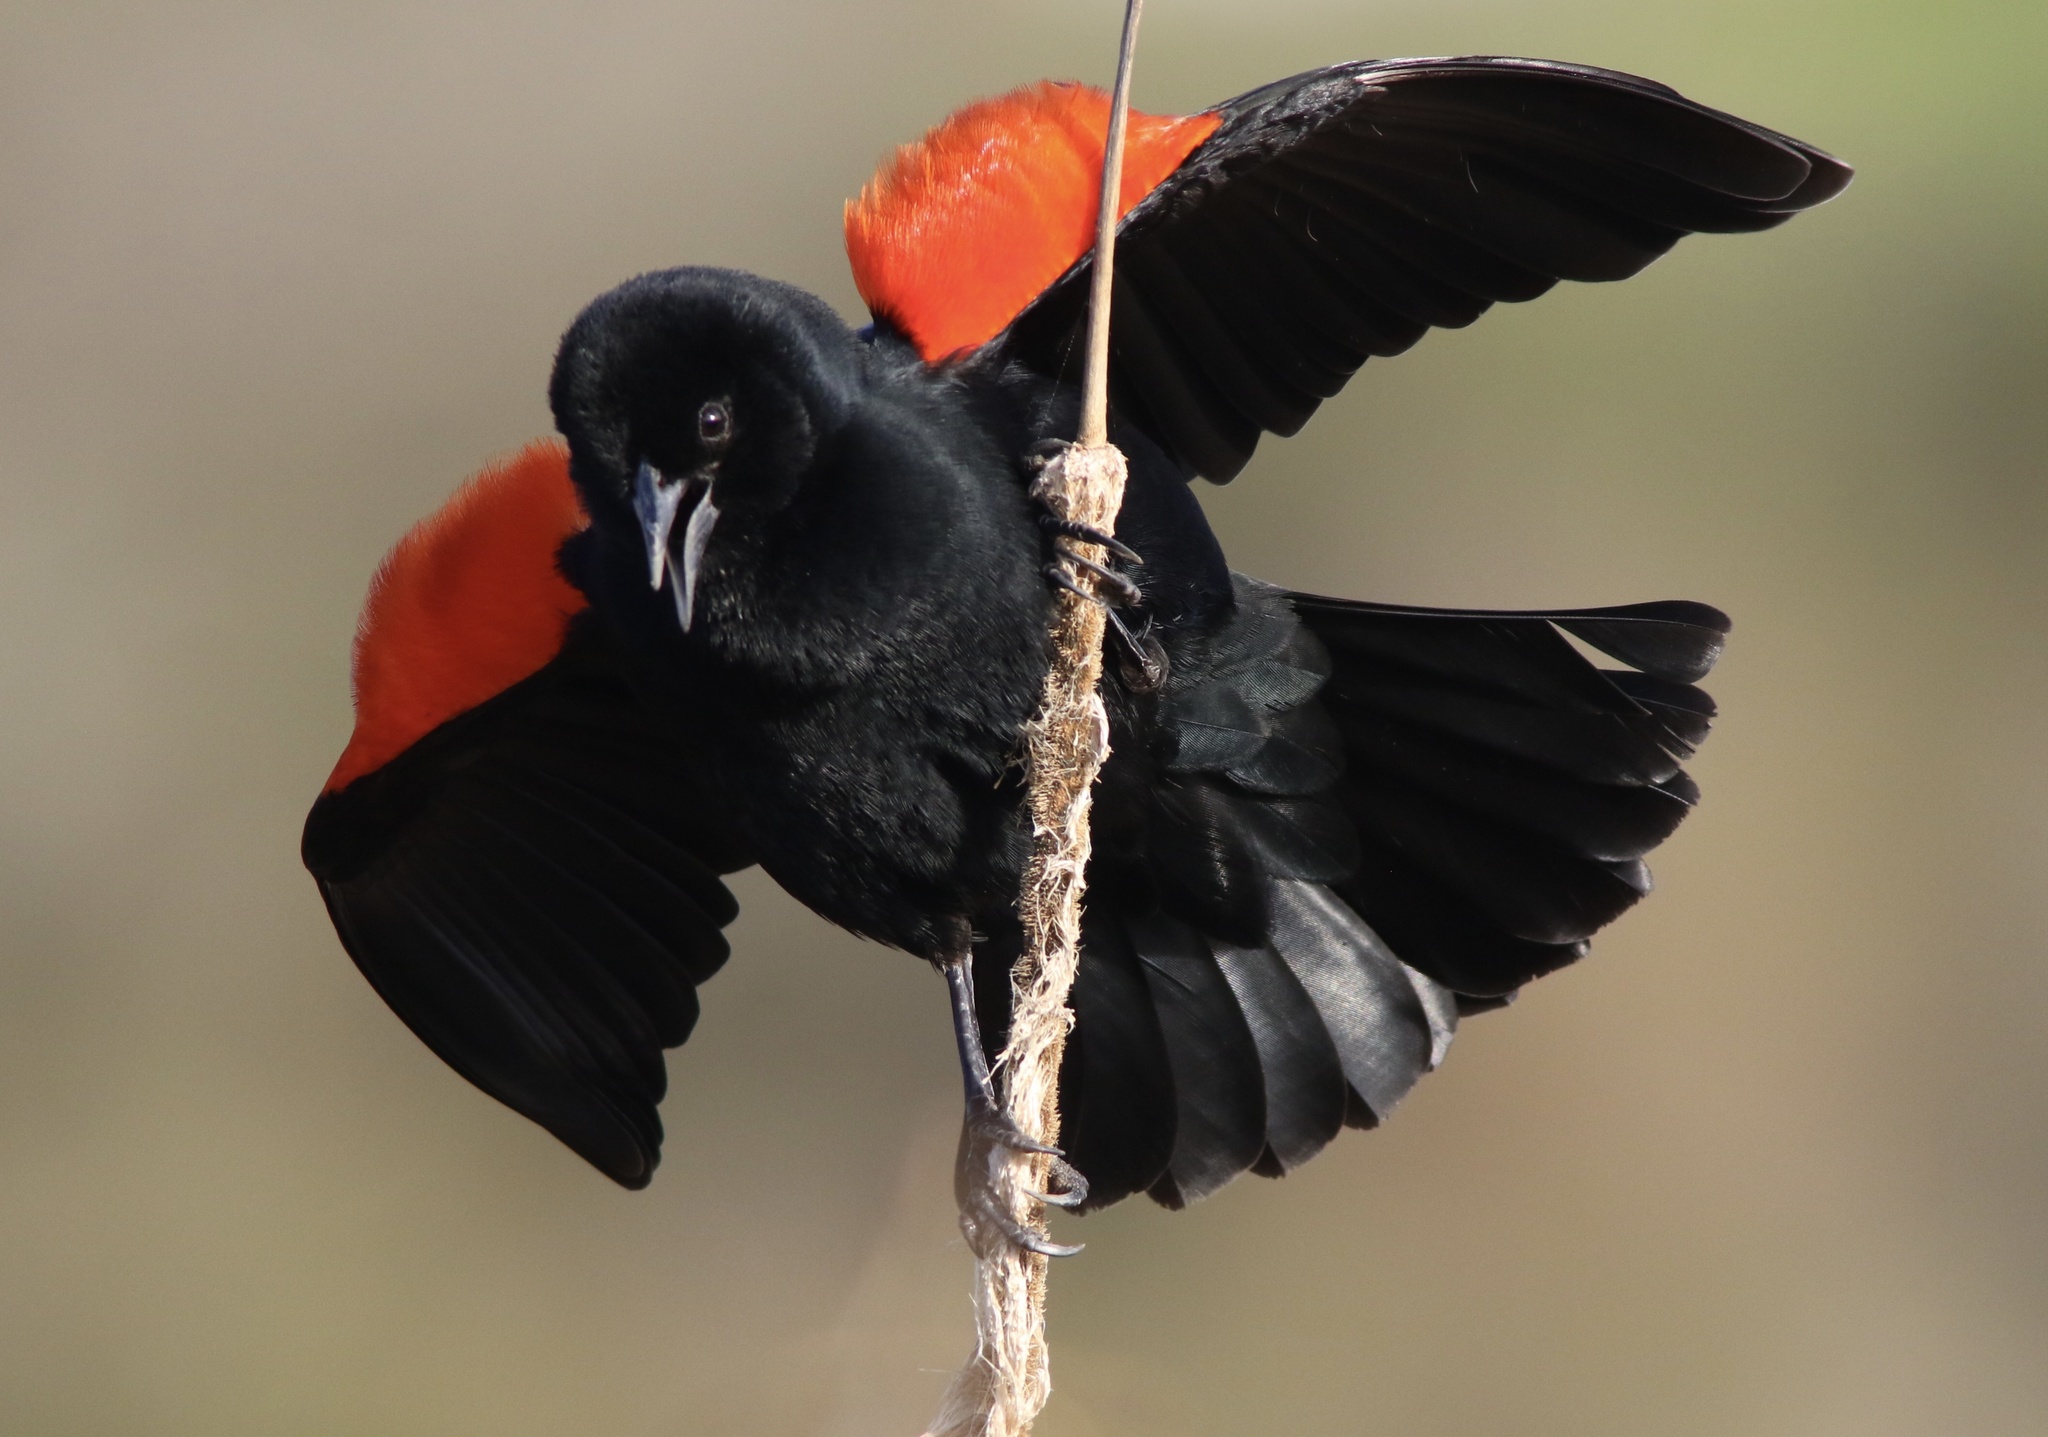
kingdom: Animalia
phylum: Chordata
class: Aves
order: Passeriformes
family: Icteridae
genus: Agelaius
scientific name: Agelaius phoeniceus
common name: Red-winged blackbird
